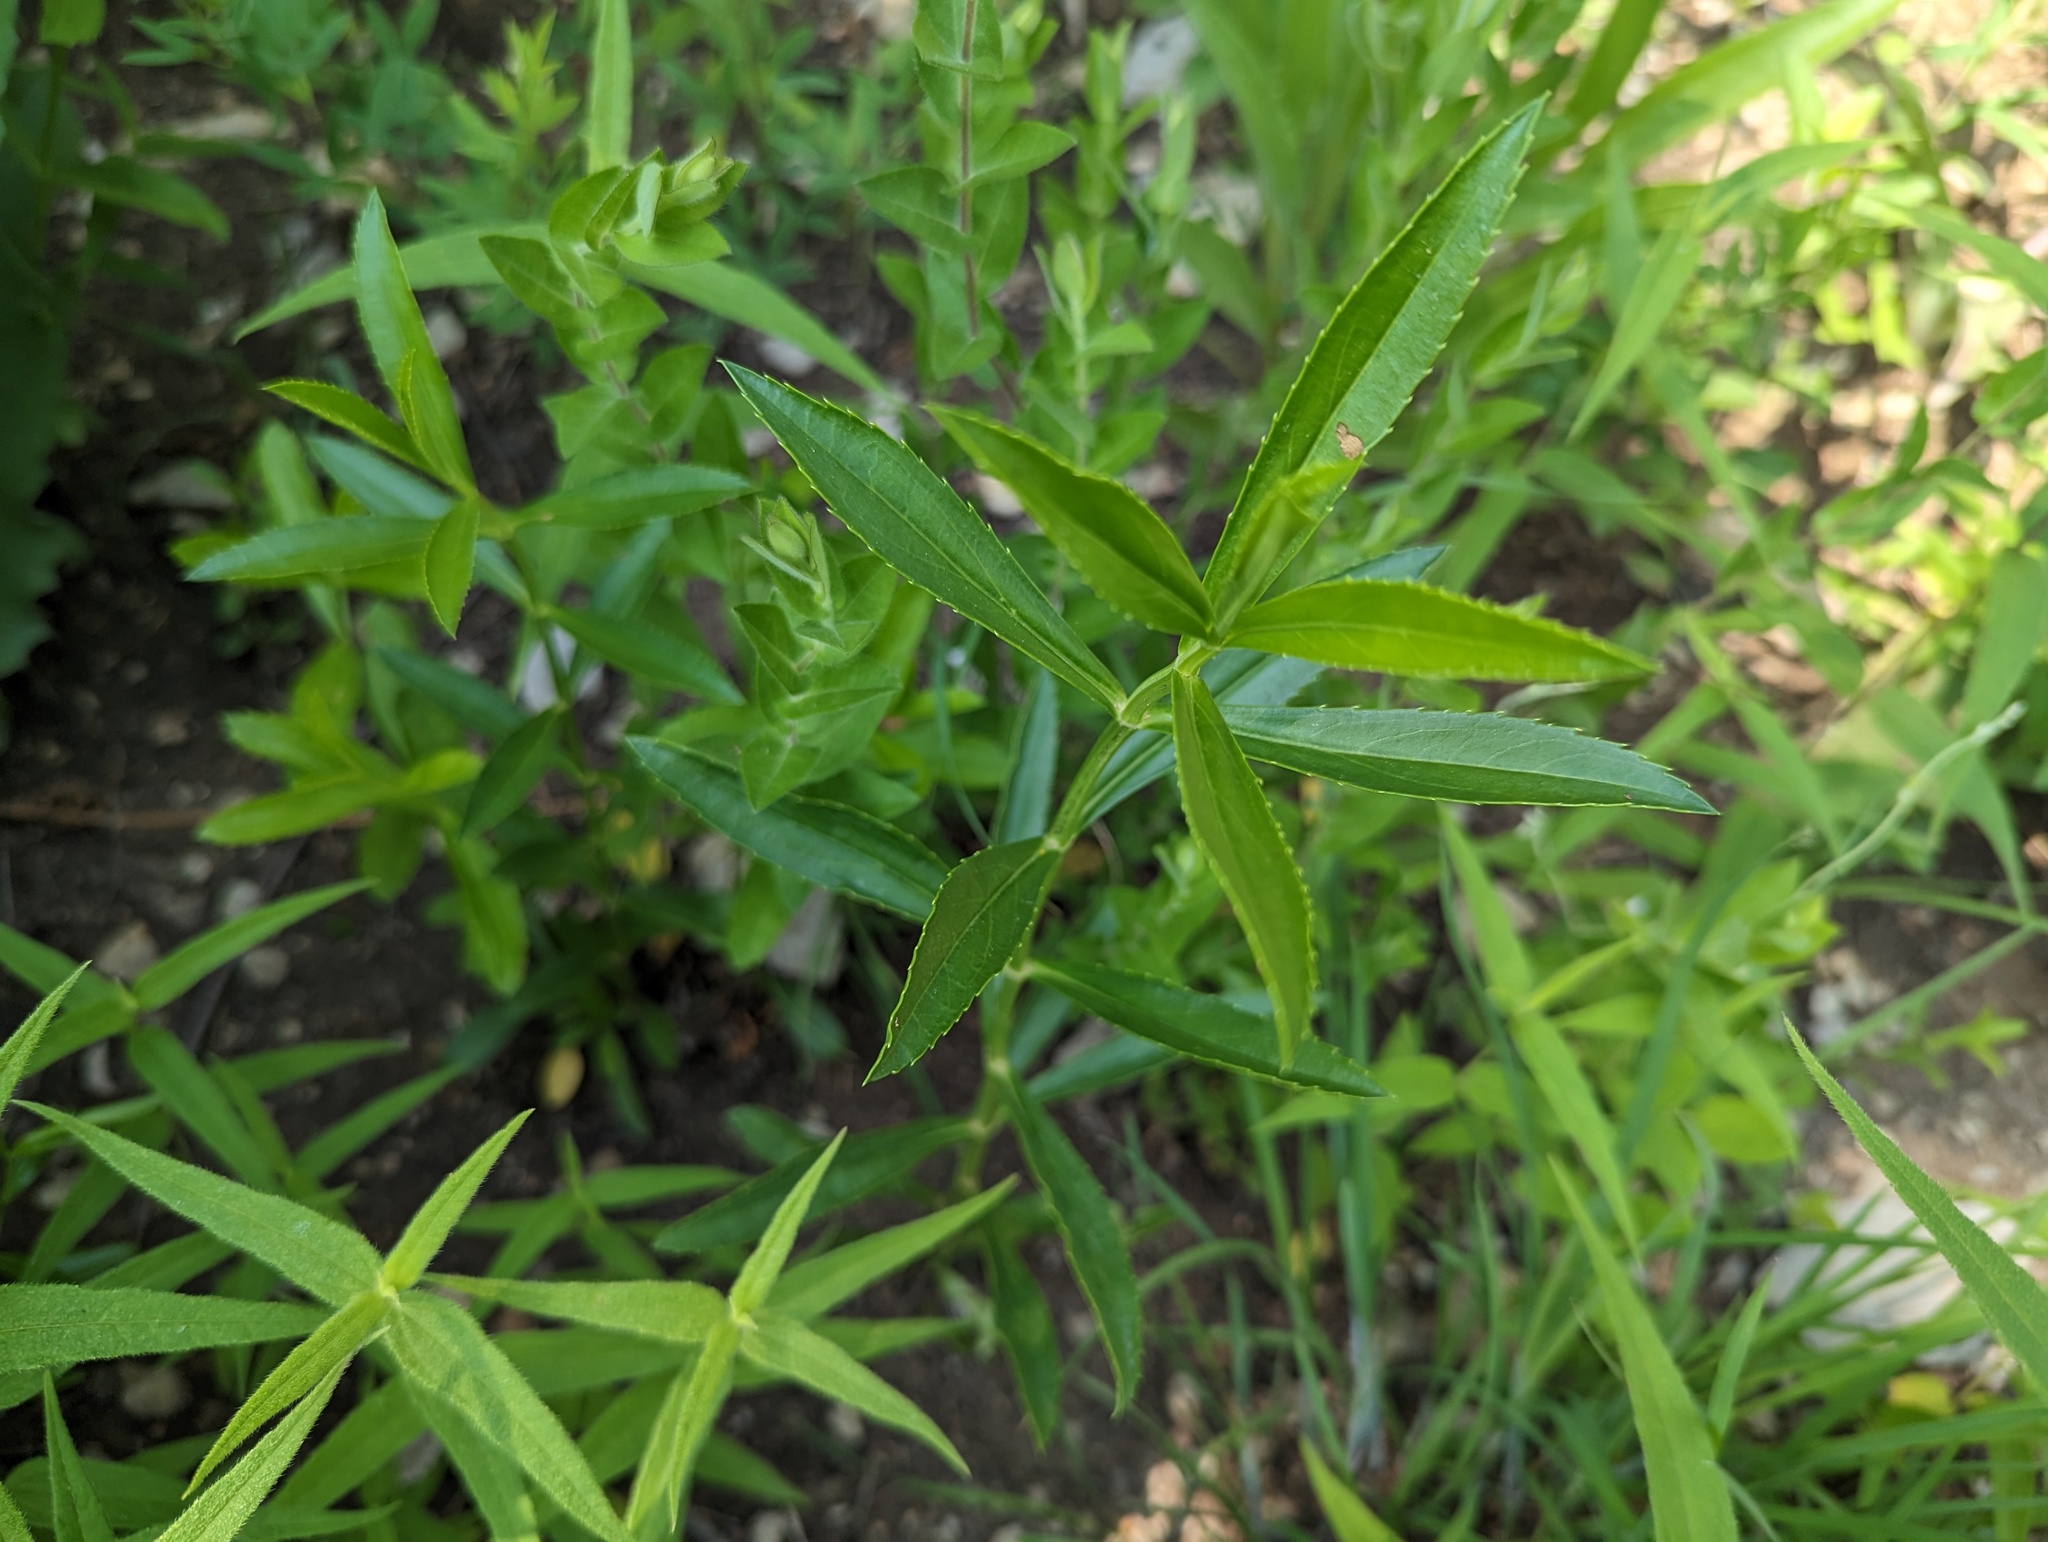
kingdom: Plantae
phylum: Tracheophyta
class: Magnoliopsida
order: Lamiales
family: Lamiaceae
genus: Physostegia
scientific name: Physostegia virginiana
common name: Obedient-plant
